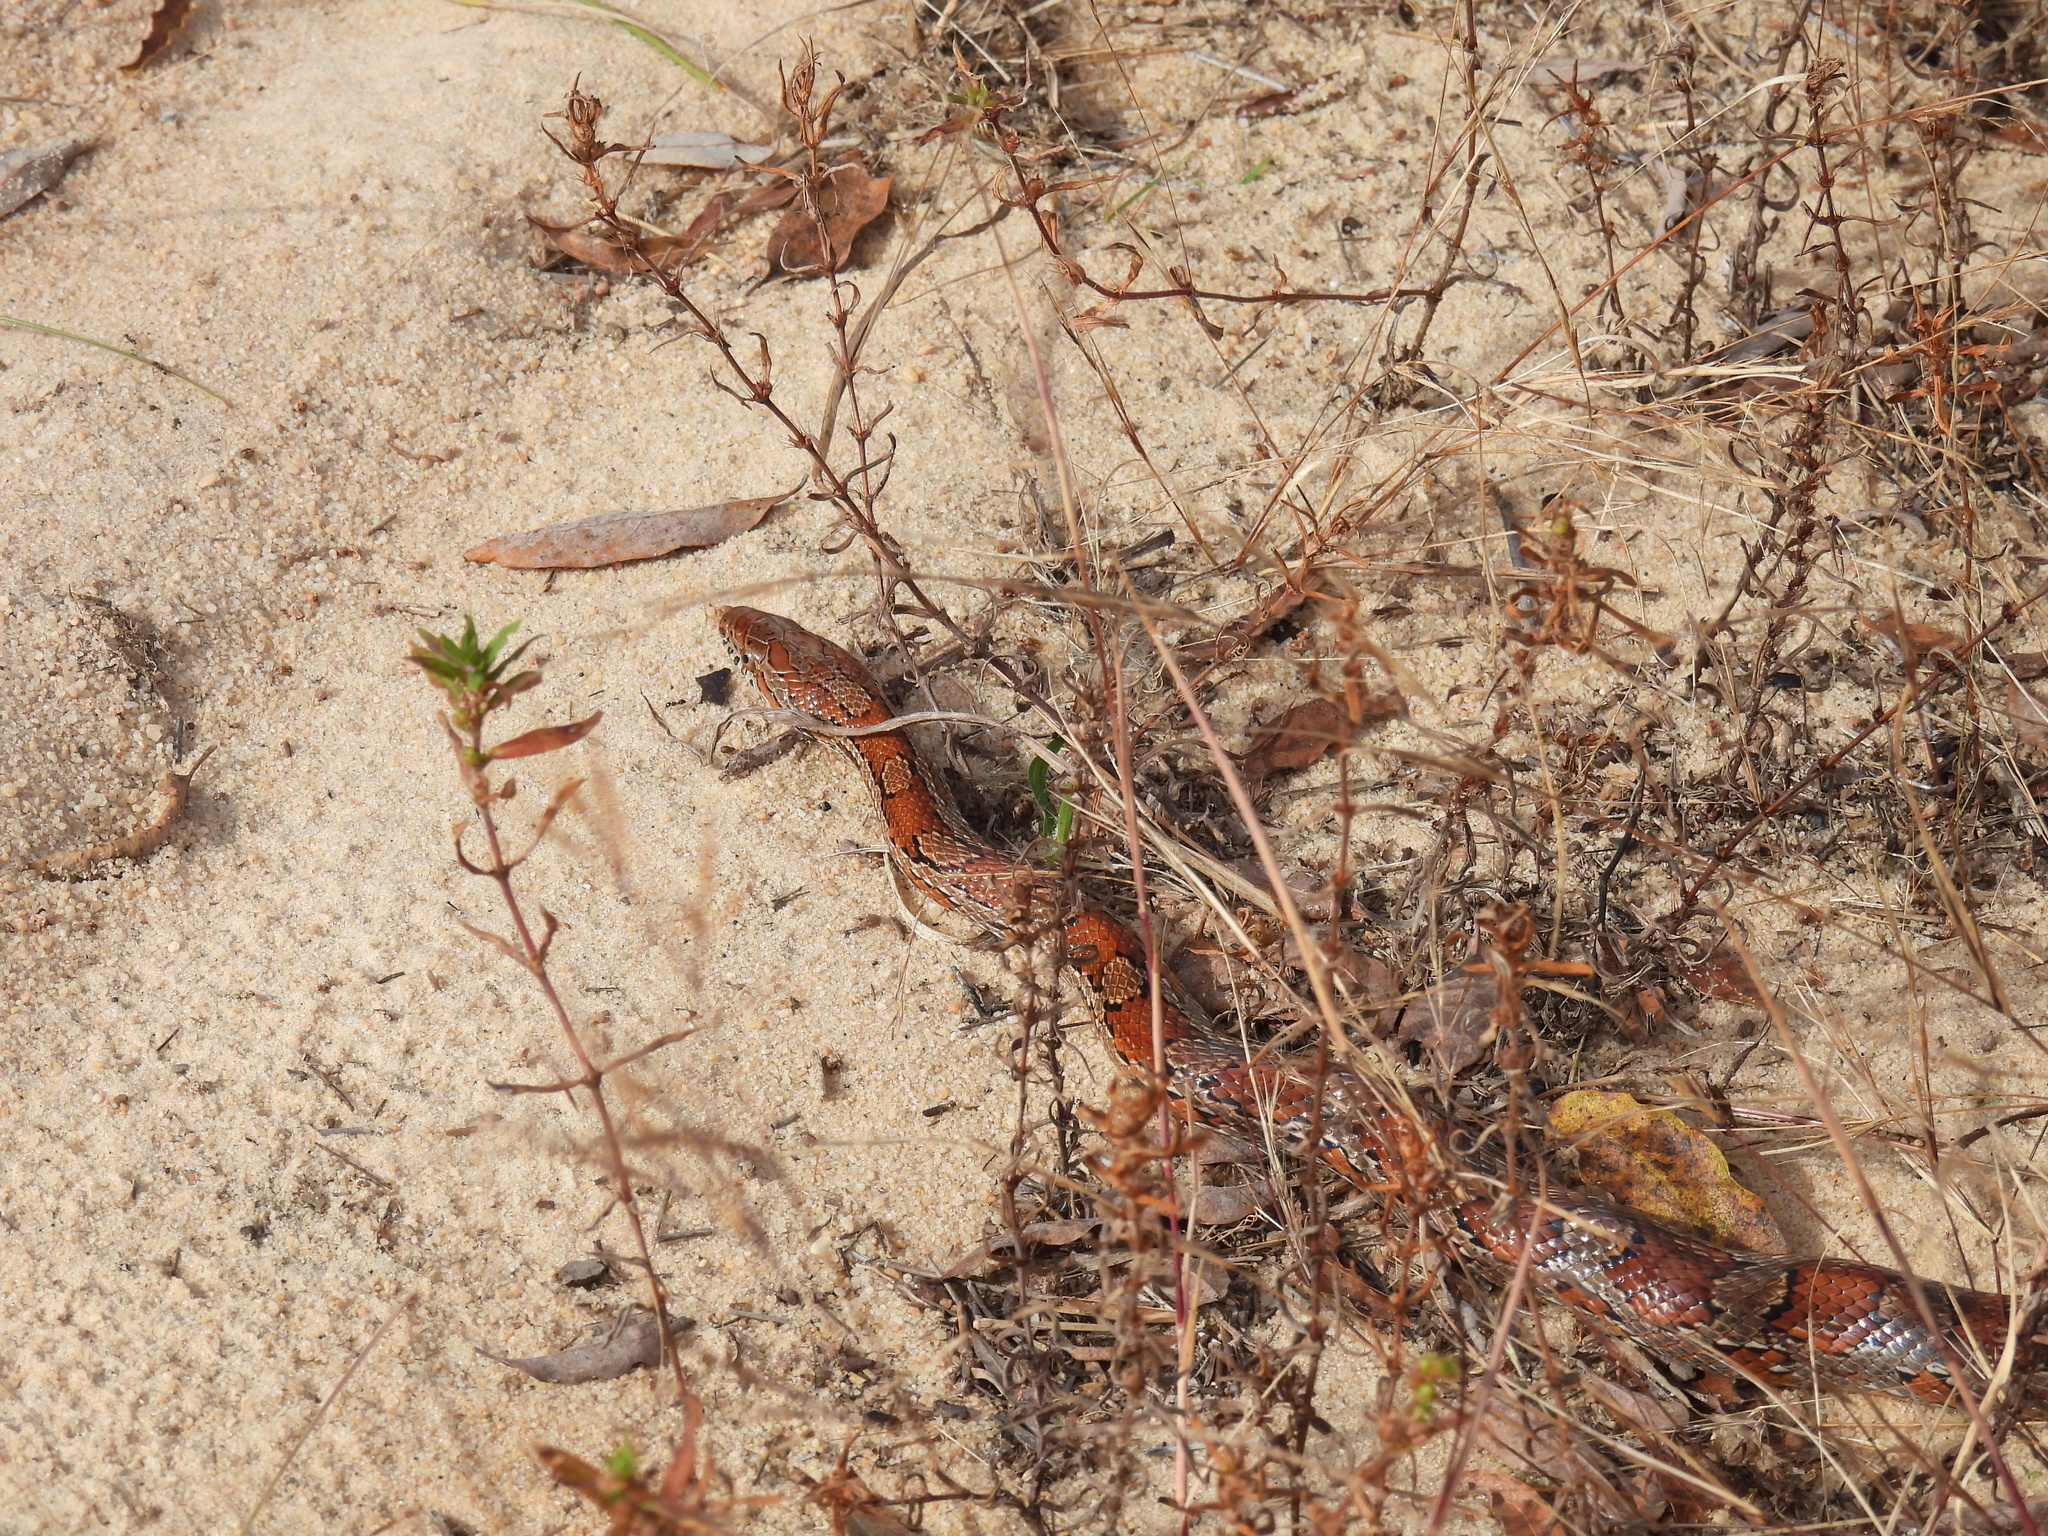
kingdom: Animalia
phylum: Chordata
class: Squamata
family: Colubridae
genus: Pantherophis
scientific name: Pantherophis guttatus
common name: Red cornsnake
